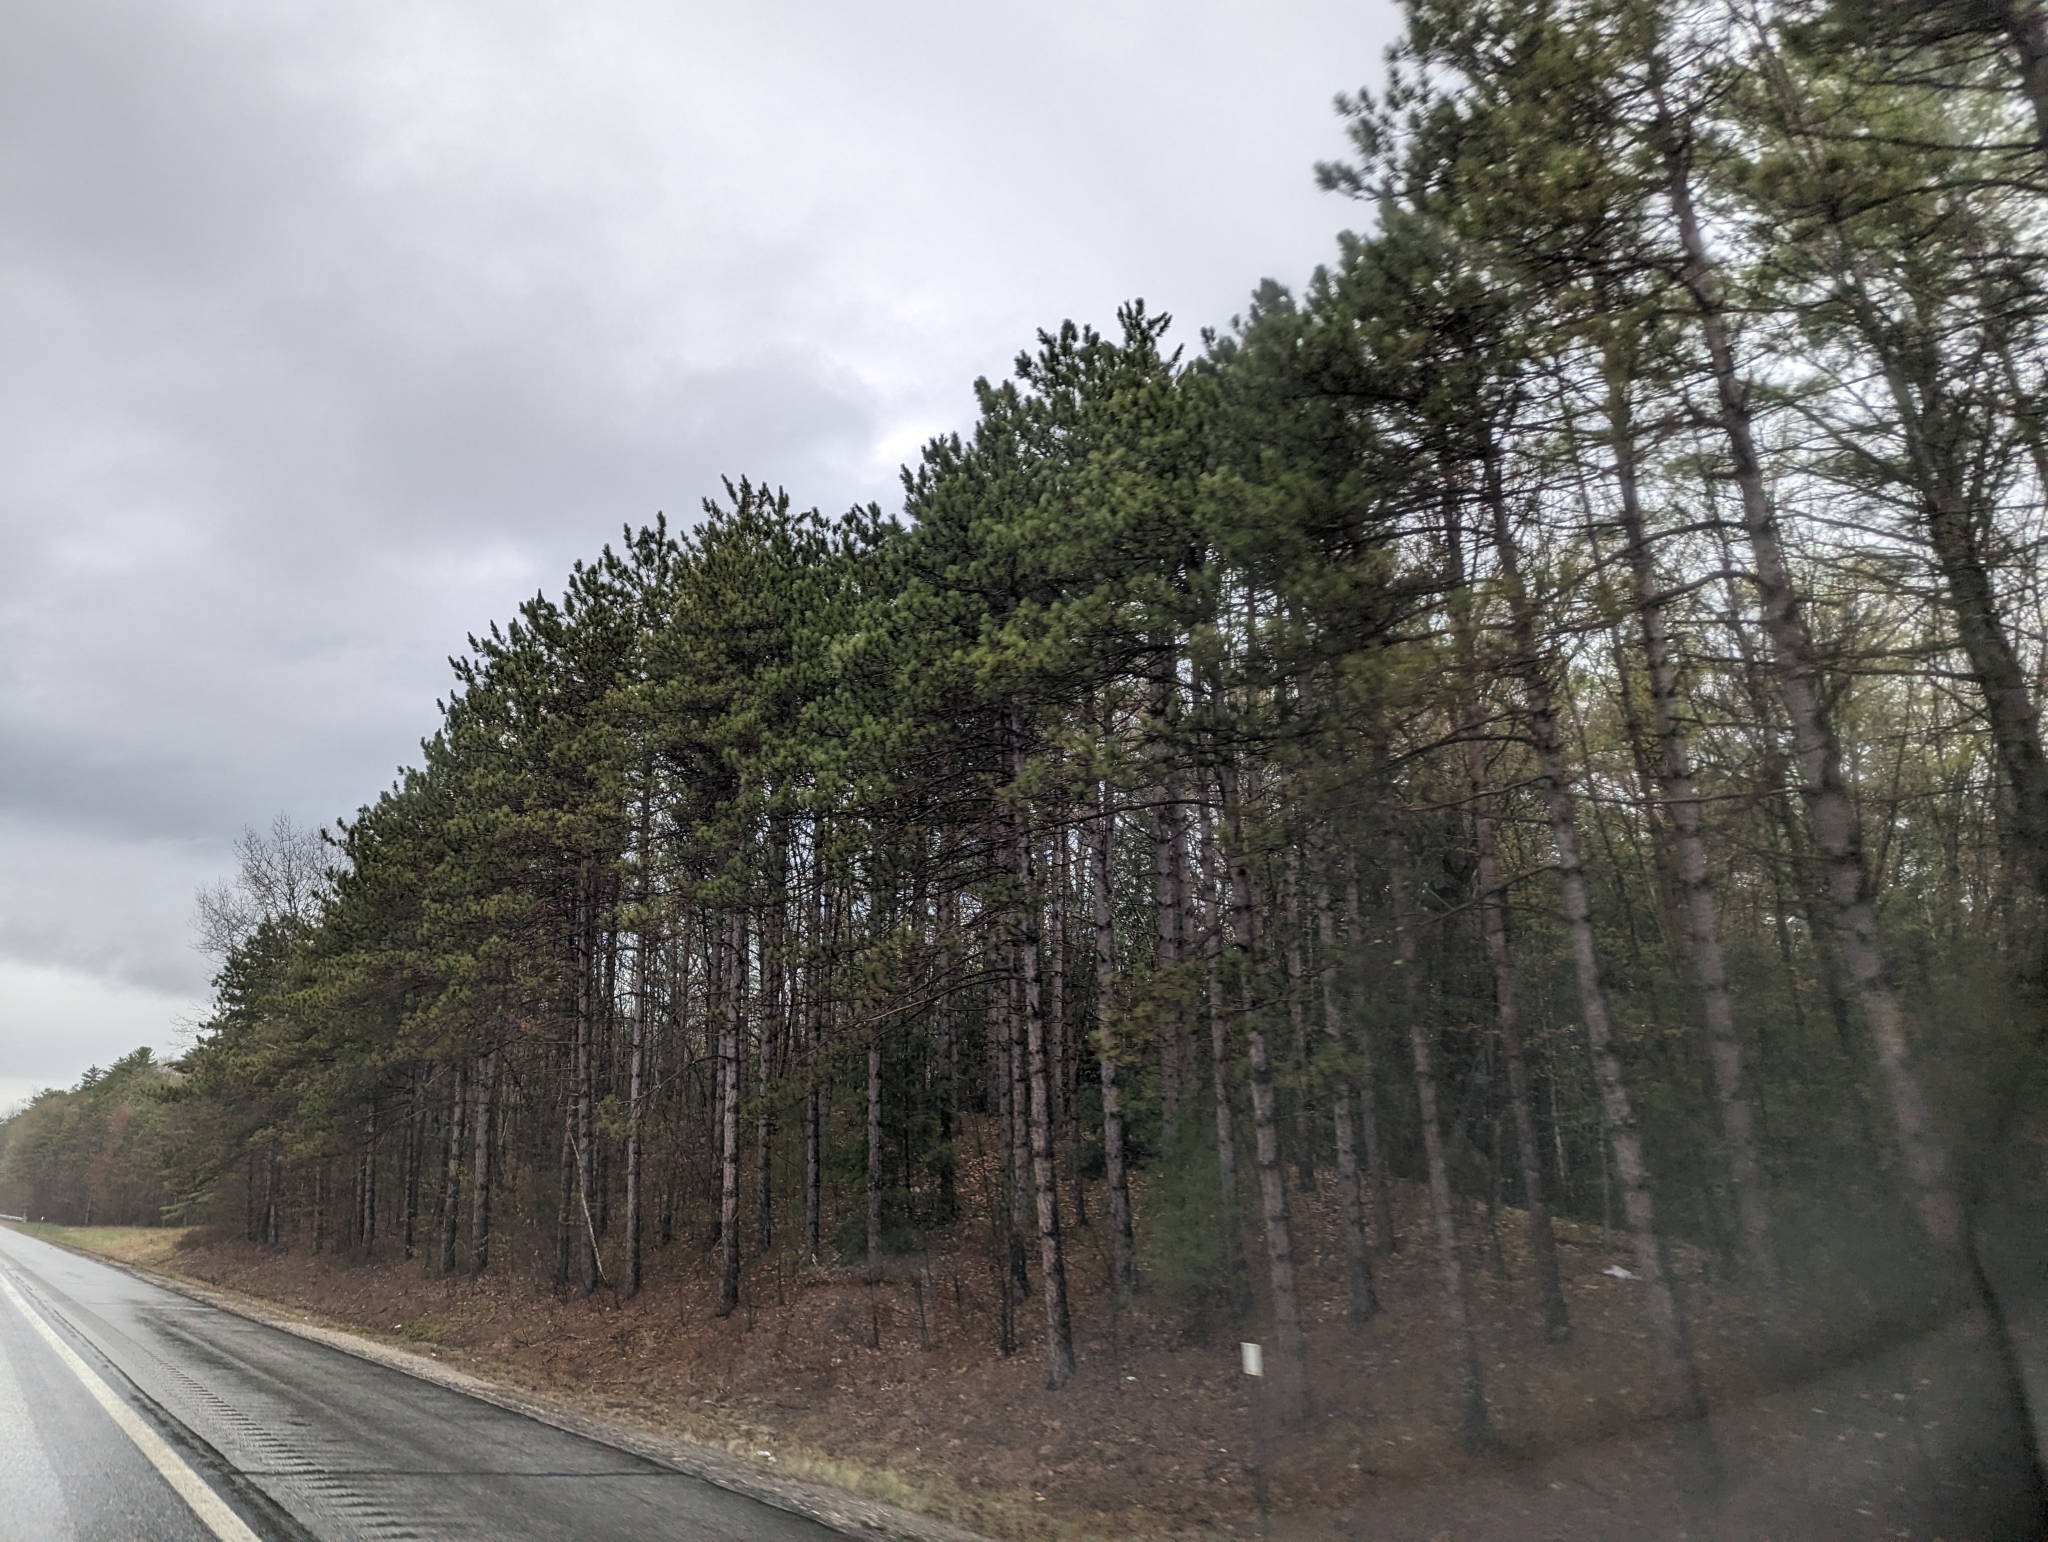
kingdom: Plantae
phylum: Tracheophyta
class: Pinopsida
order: Pinales
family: Pinaceae
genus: Pinus
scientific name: Pinus resinosa
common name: Norway pine
